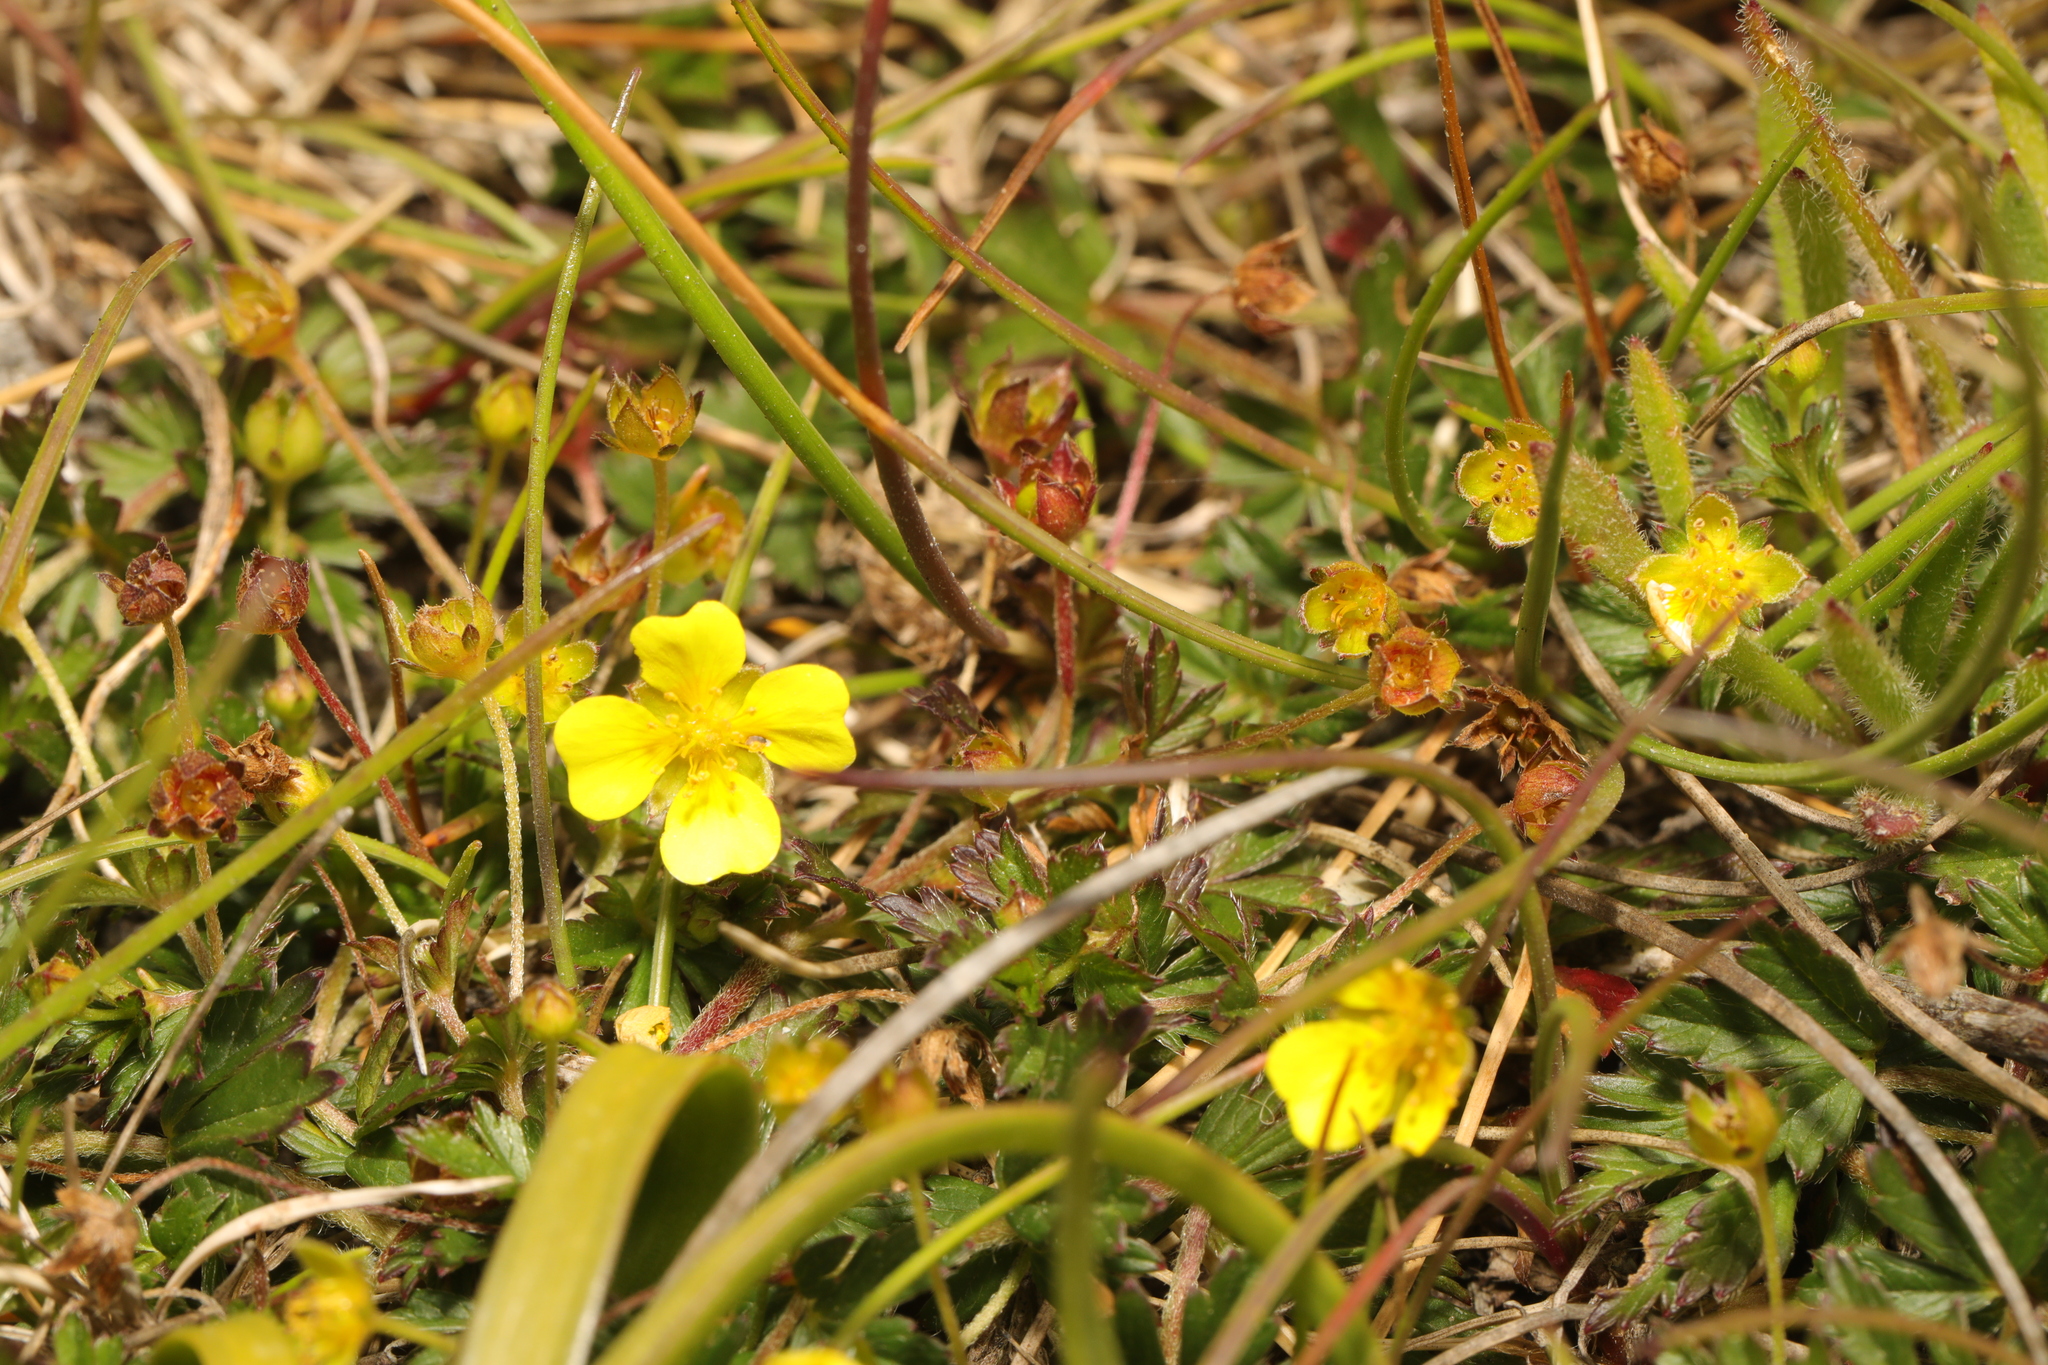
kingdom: Plantae
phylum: Tracheophyta
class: Magnoliopsida
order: Rosales
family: Rosaceae
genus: Potentilla
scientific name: Potentilla erecta
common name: Tormentil
